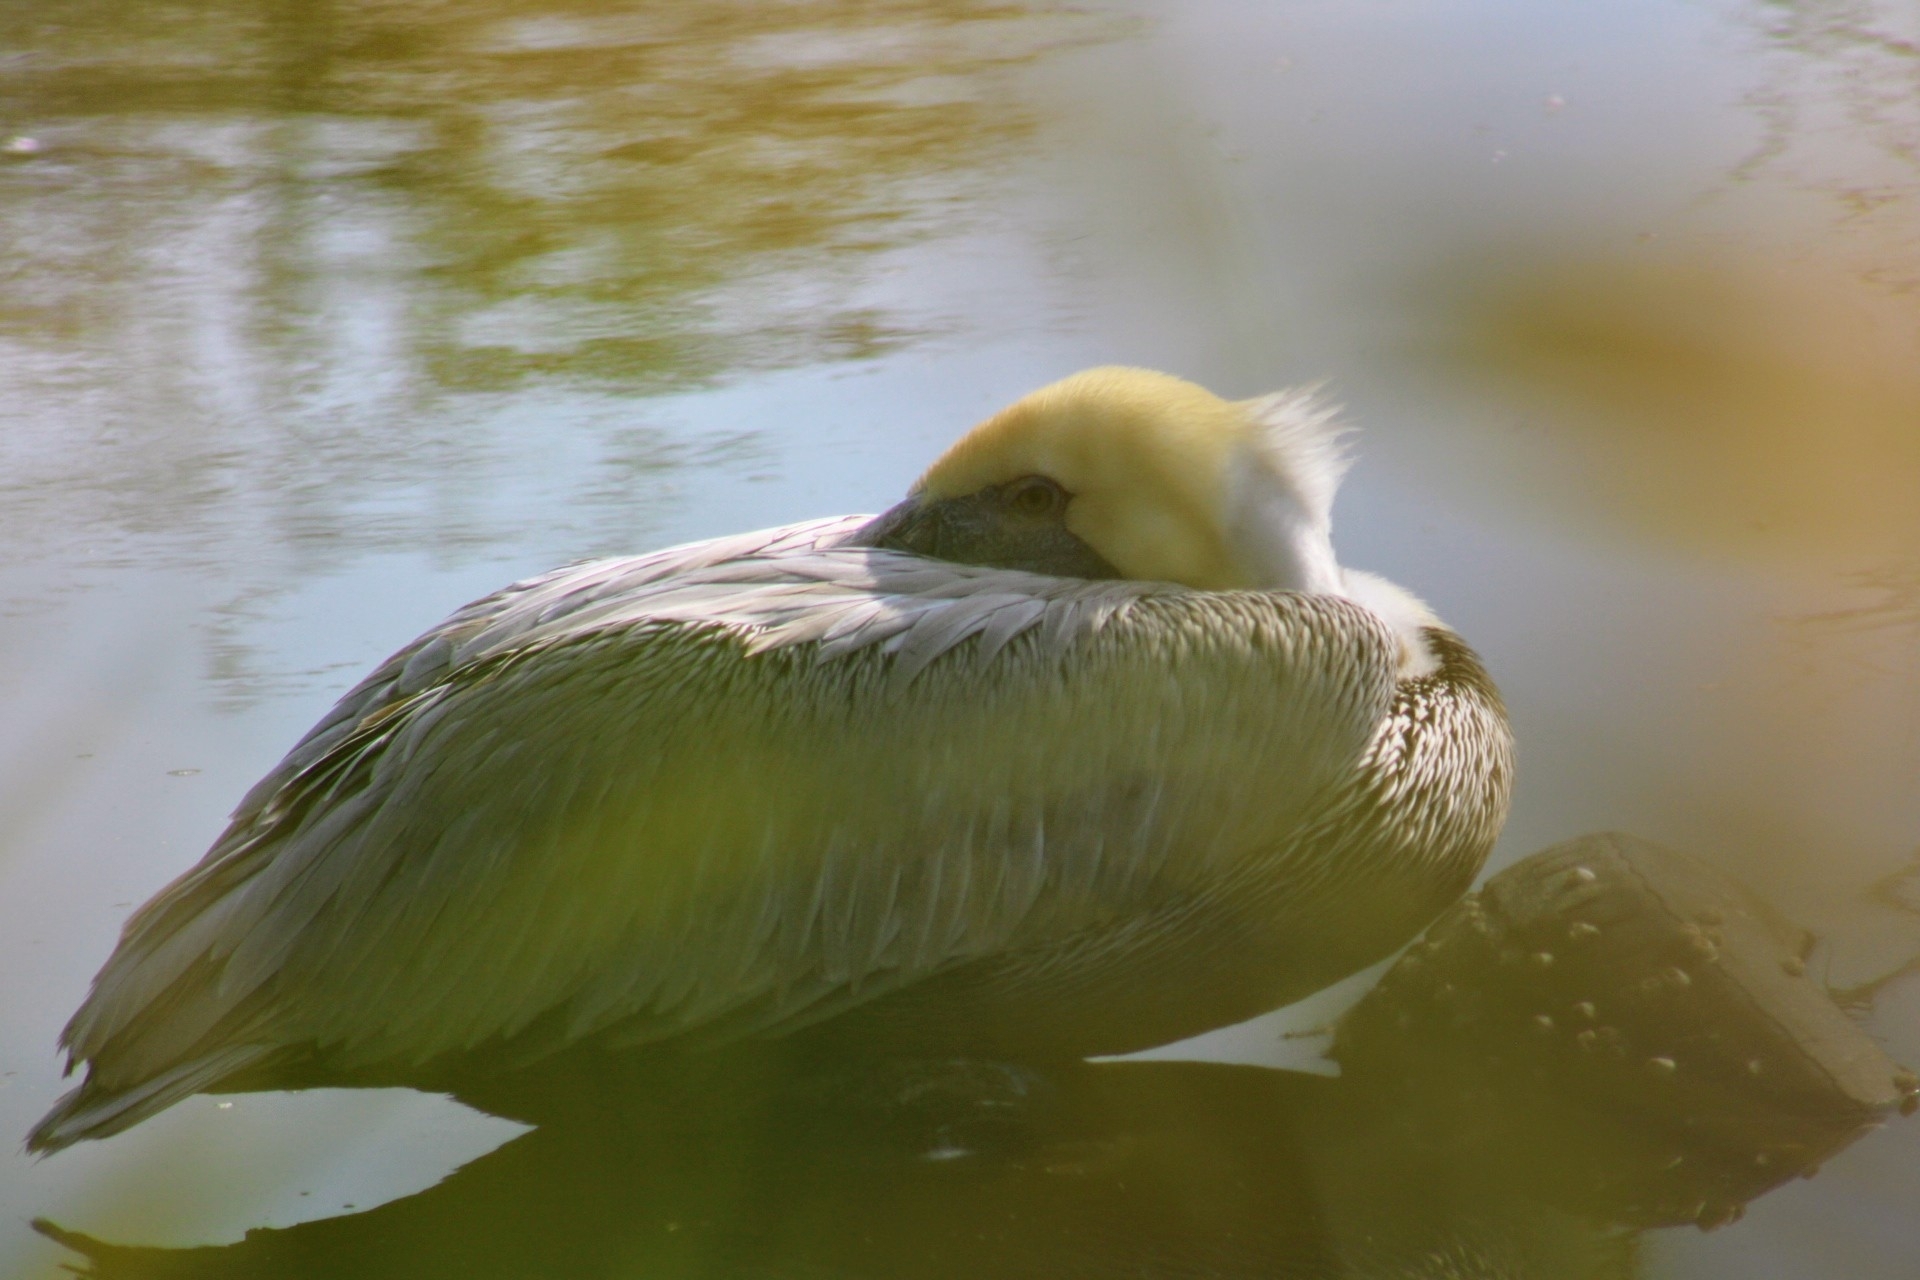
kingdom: Animalia
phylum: Chordata
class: Aves
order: Pelecaniformes
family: Pelecanidae
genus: Pelecanus
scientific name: Pelecanus occidentalis
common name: Brown pelican
